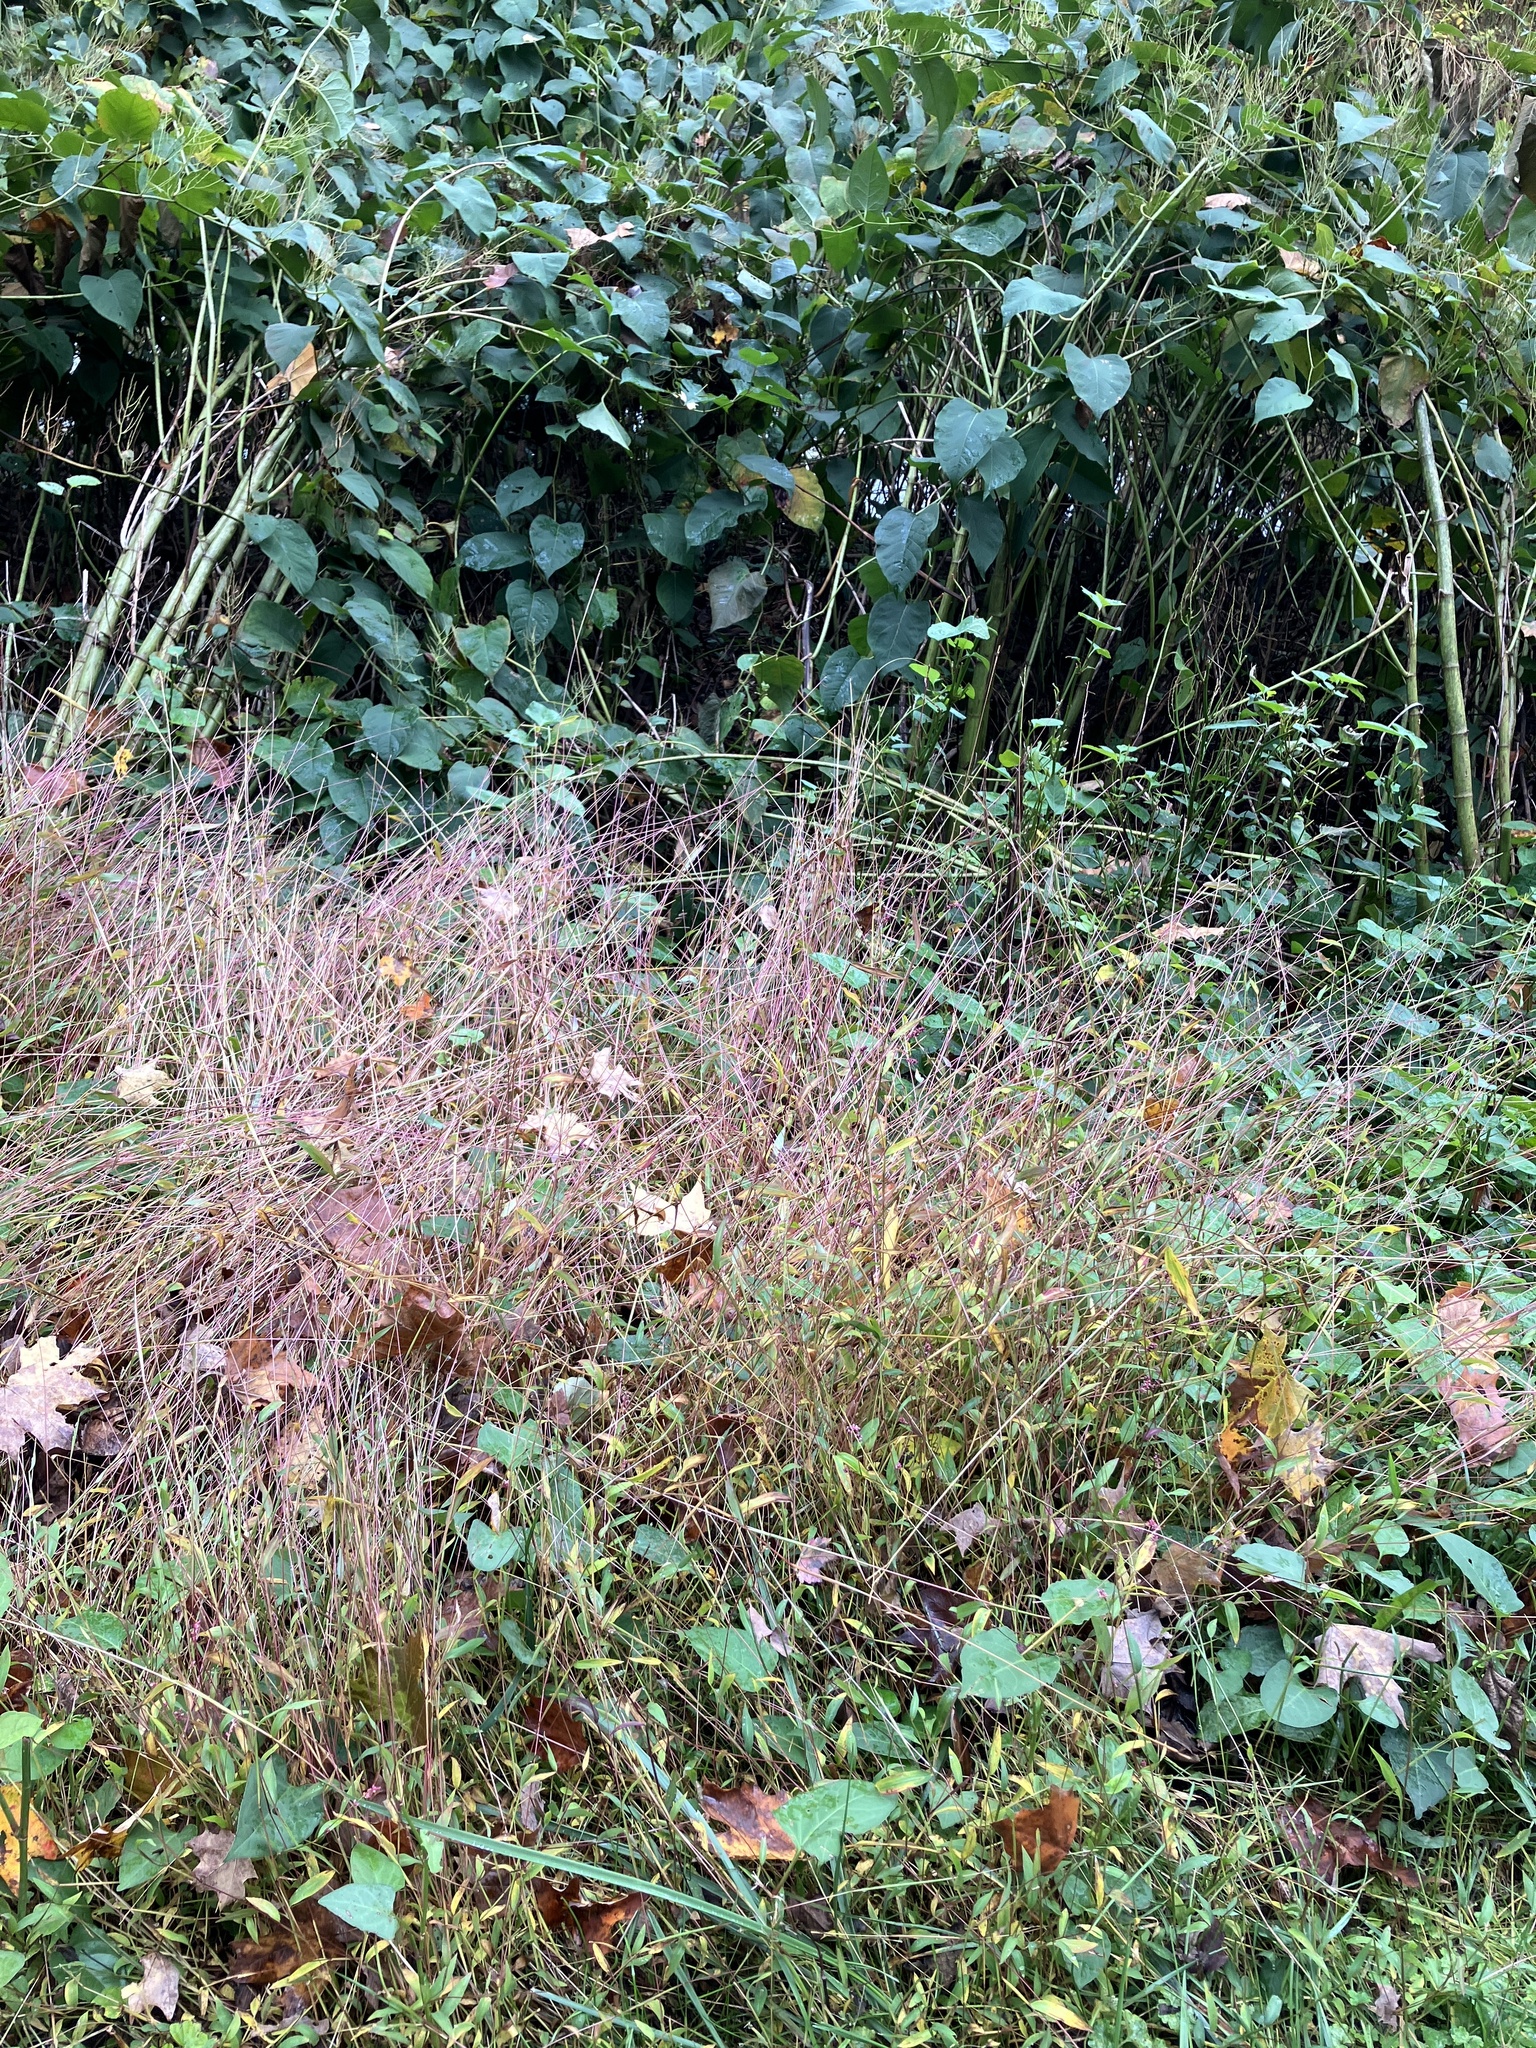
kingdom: Plantae
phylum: Tracheophyta
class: Liliopsida
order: Poales
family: Poaceae
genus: Microstegium
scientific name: Microstegium vimineum
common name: Japanese stiltgrass
